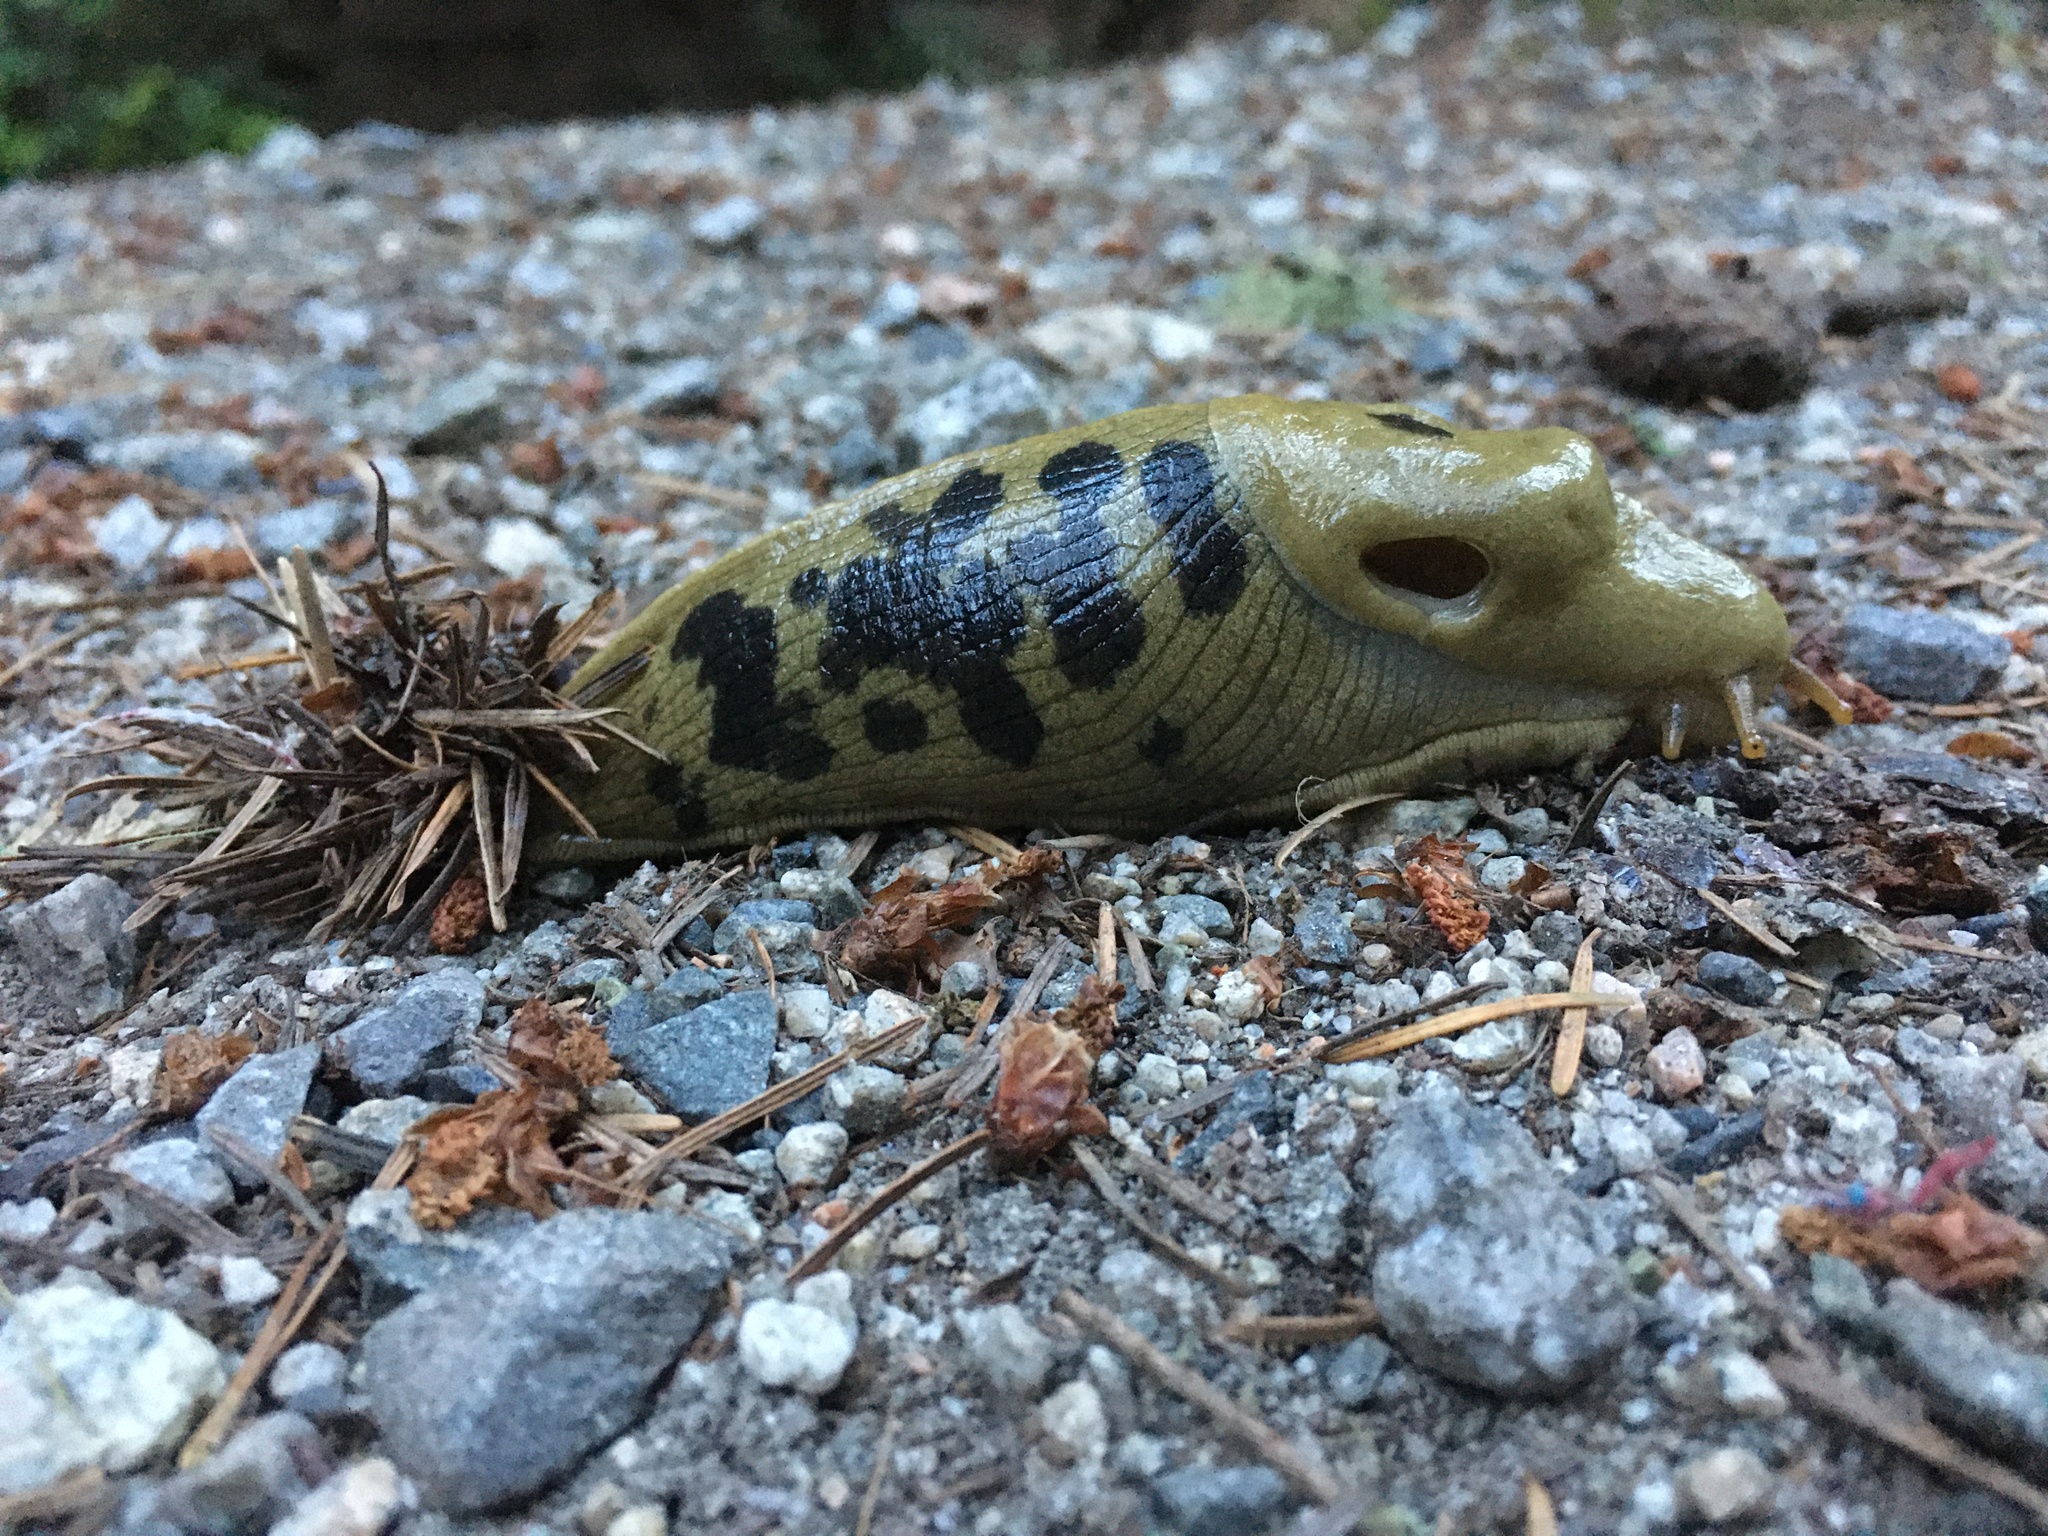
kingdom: Animalia
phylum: Mollusca
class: Gastropoda
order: Stylommatophora
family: Ariolimacidae
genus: Ariolimax
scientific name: Ariolimax columbianus
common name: Pacific banana slug
